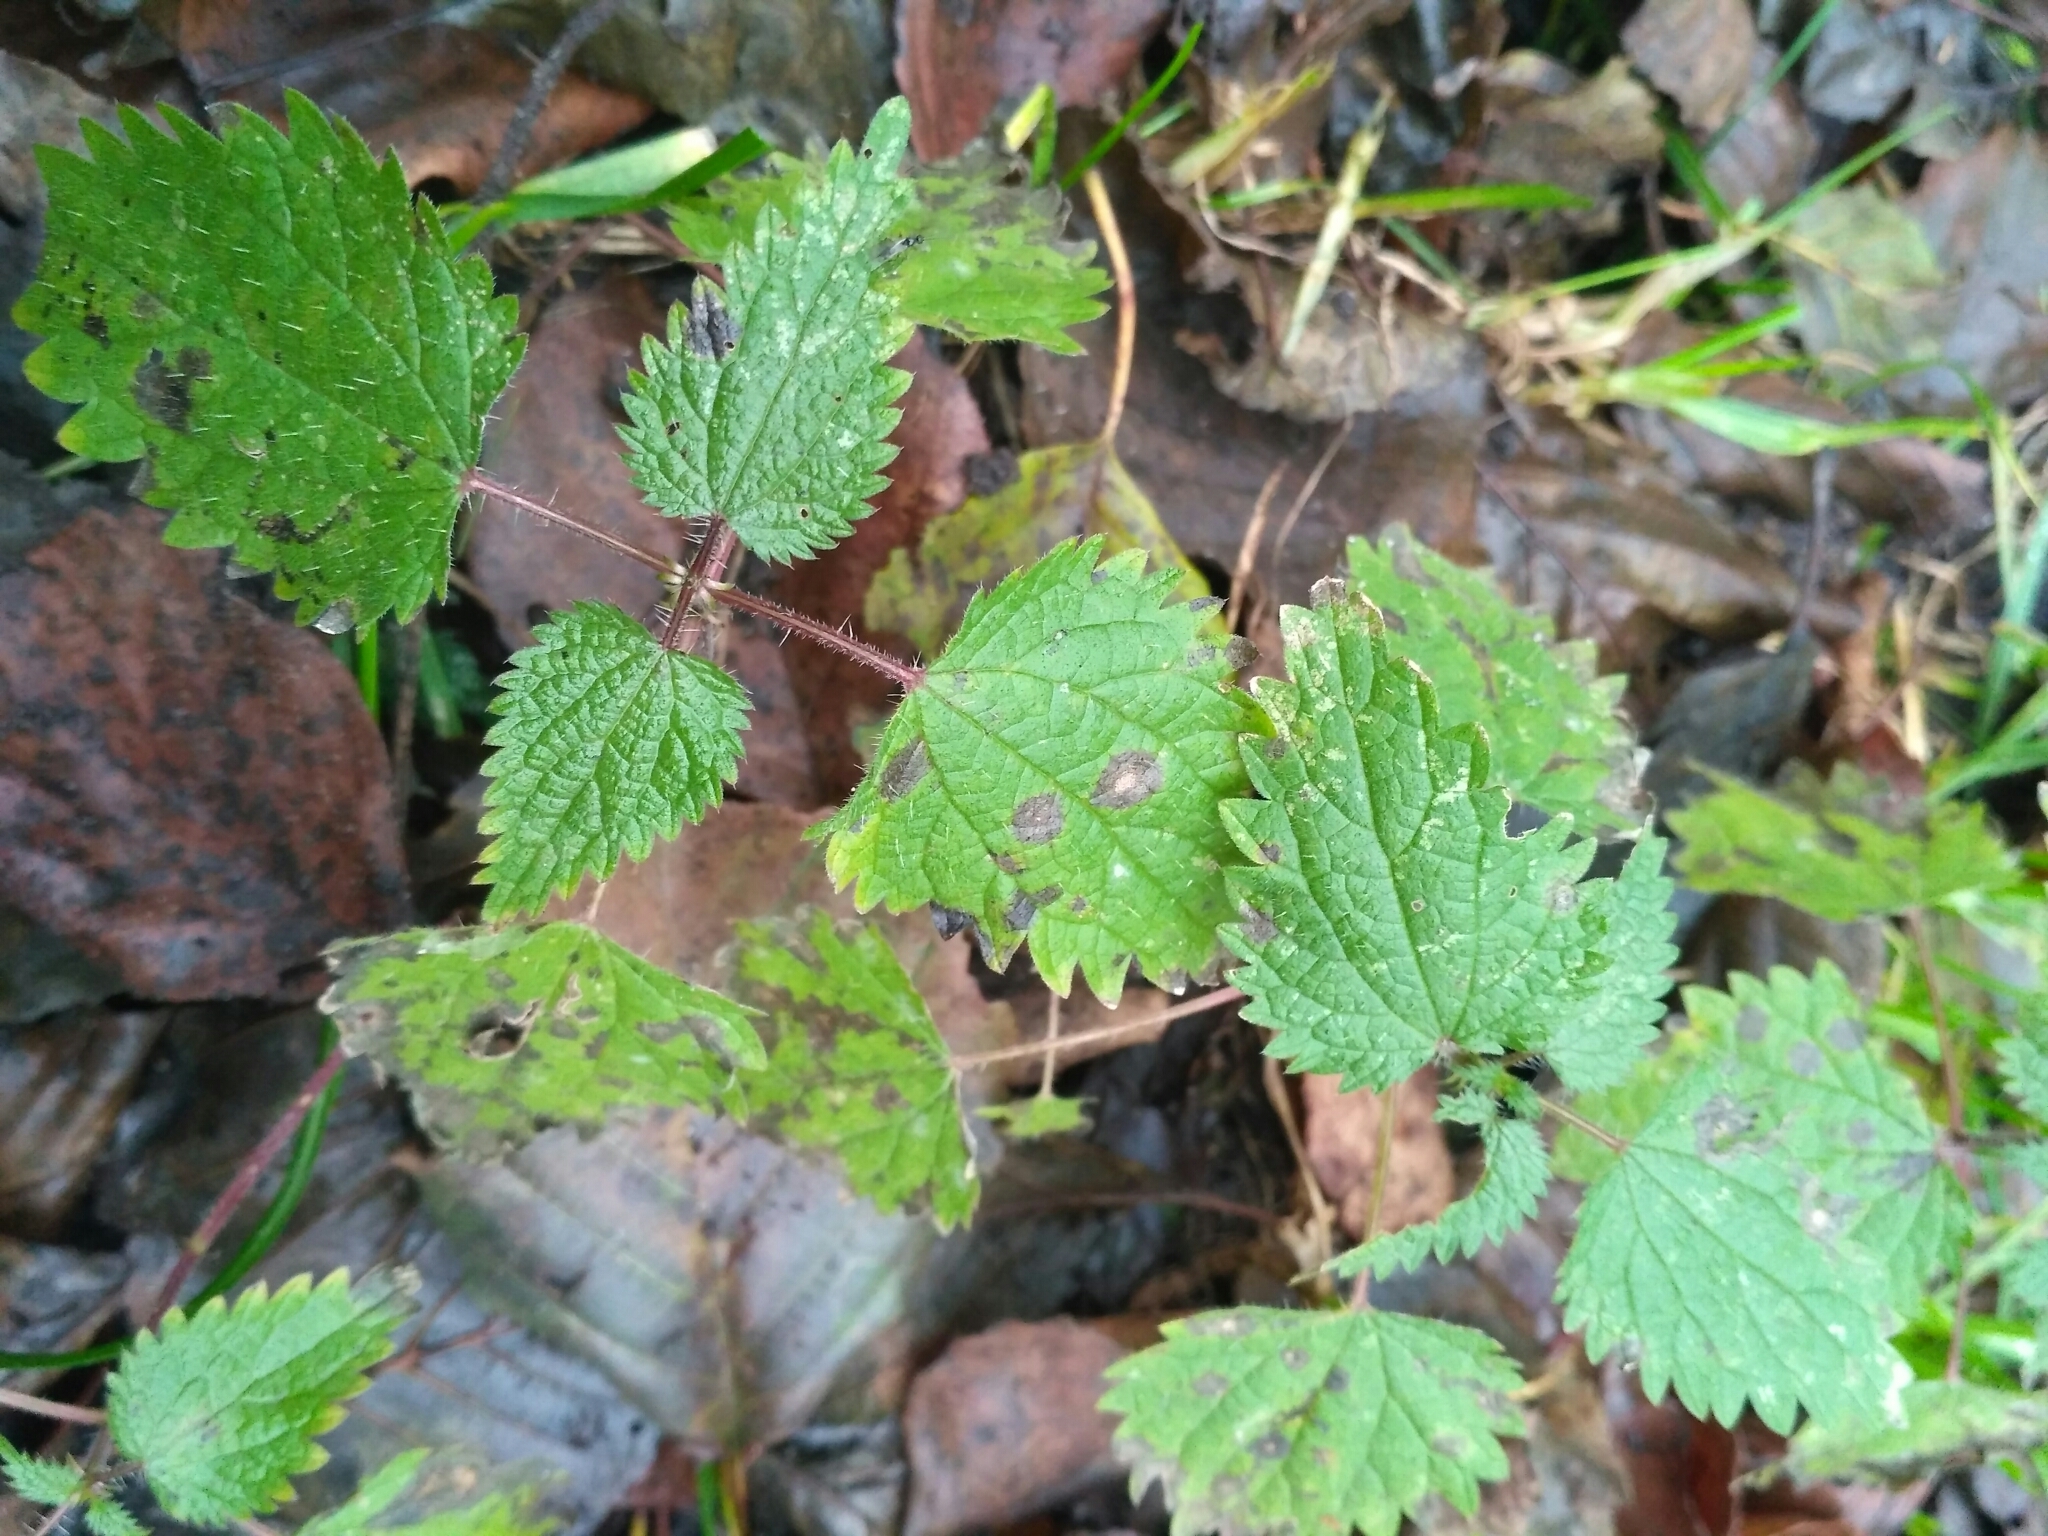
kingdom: Plantae
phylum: Tracheophyta
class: Magnoliopsida
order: Rosales
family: Urticaceae
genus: Urtica
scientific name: Urtica dioica
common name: Common nettle
